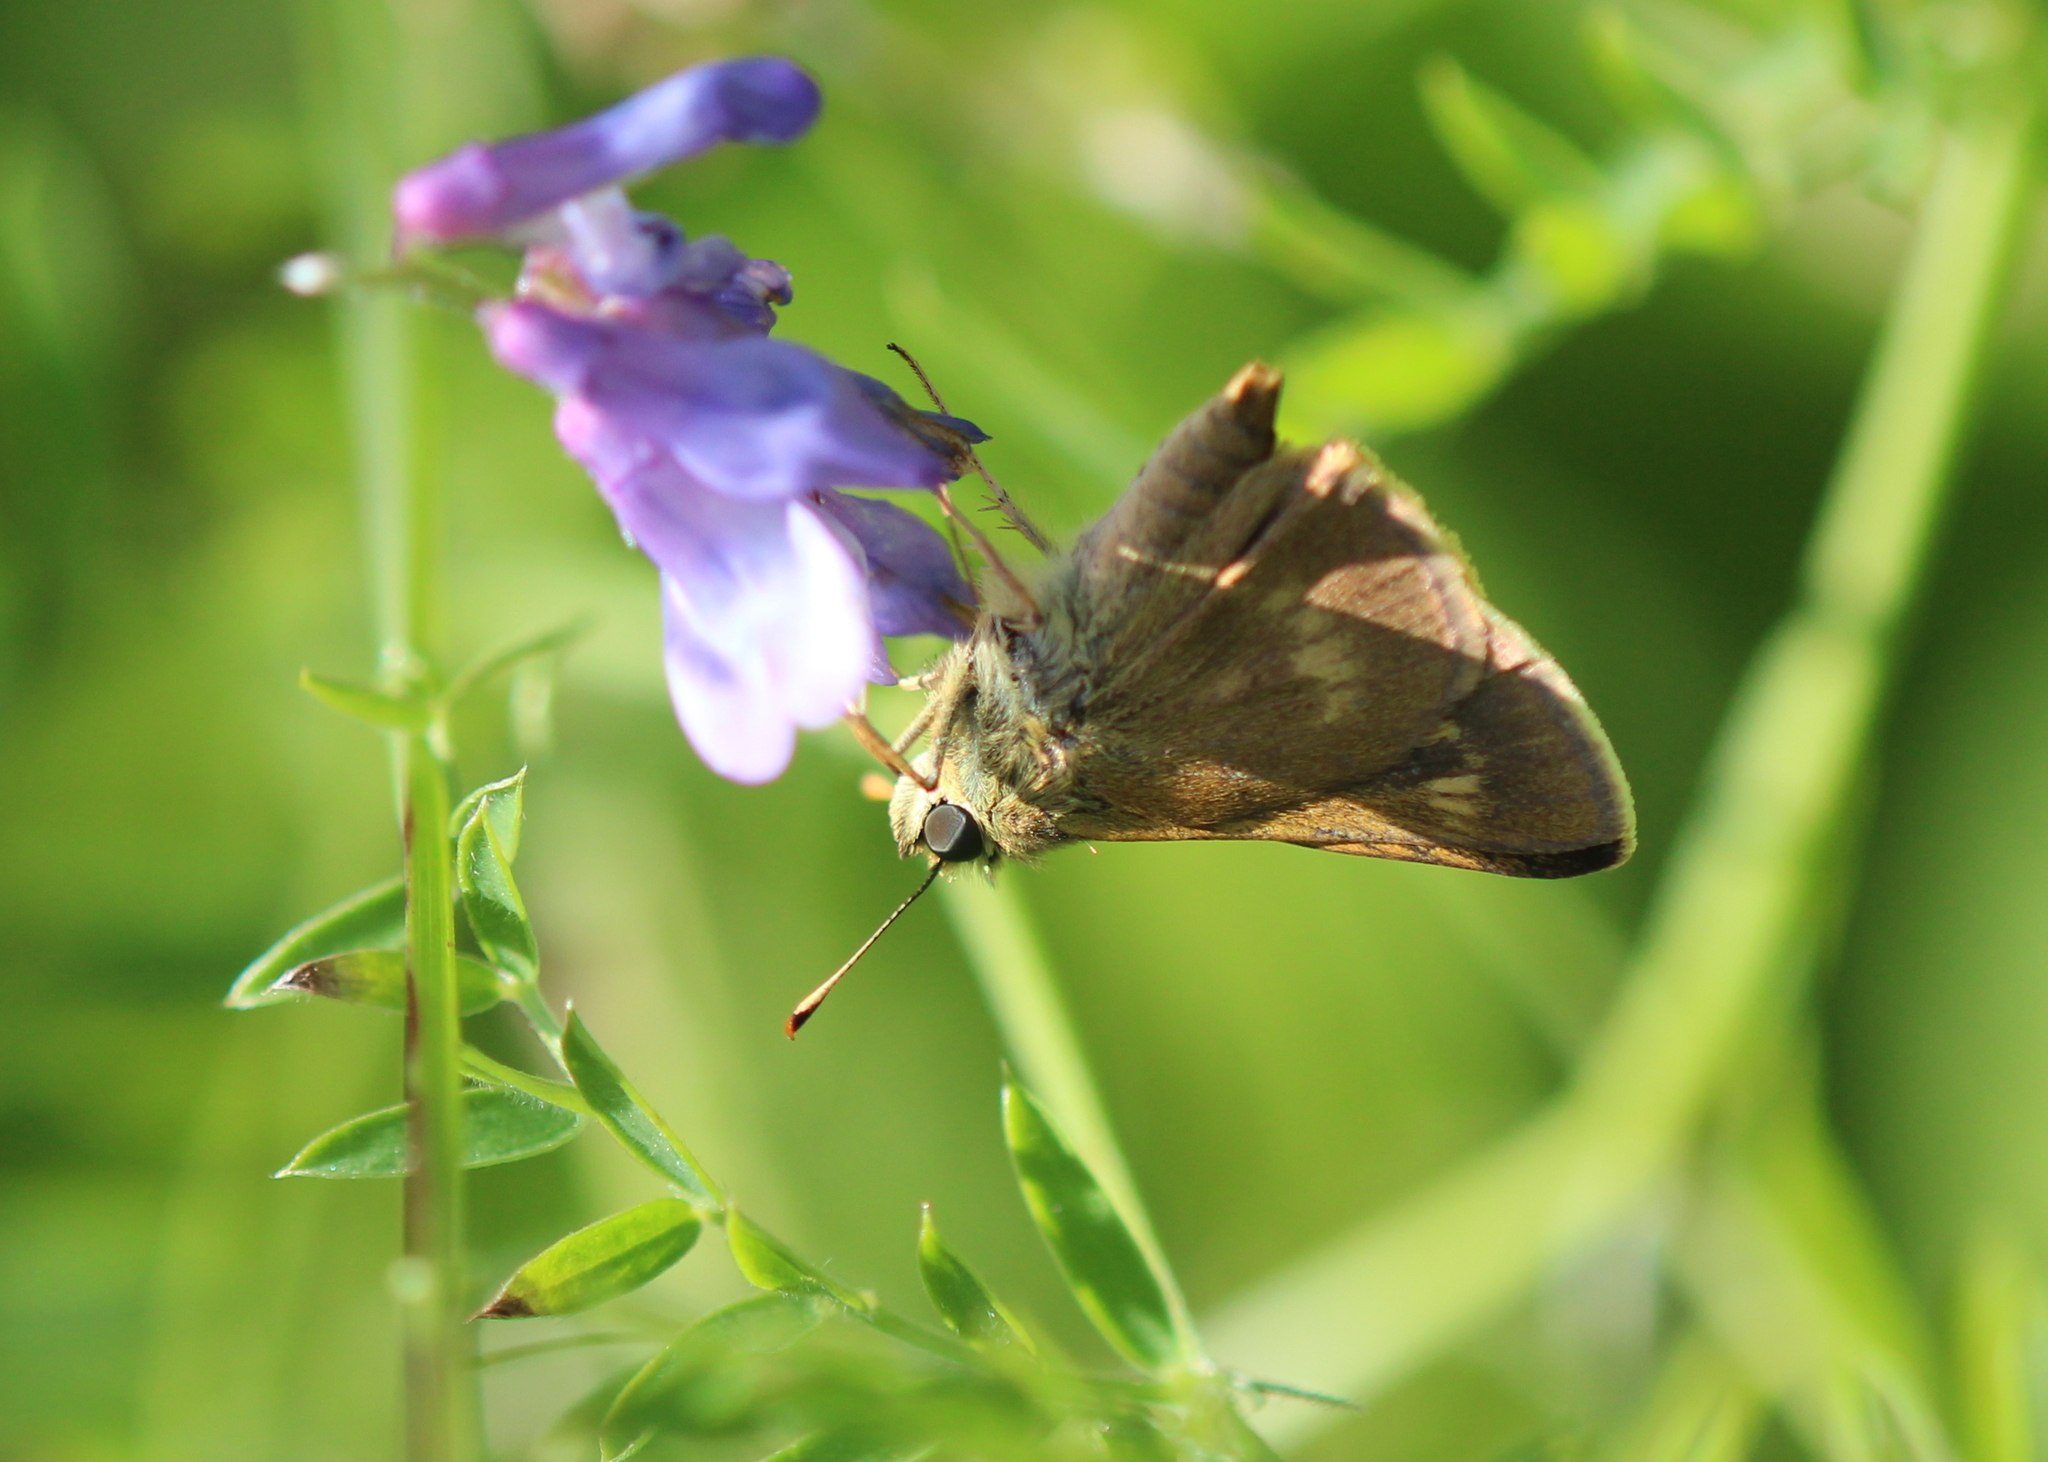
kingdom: Animalia
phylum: Arthropoda
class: Insecta
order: Lepidoptera
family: Hesperiidae
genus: Polites
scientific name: Polites egeremet
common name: Northern broken-dash
